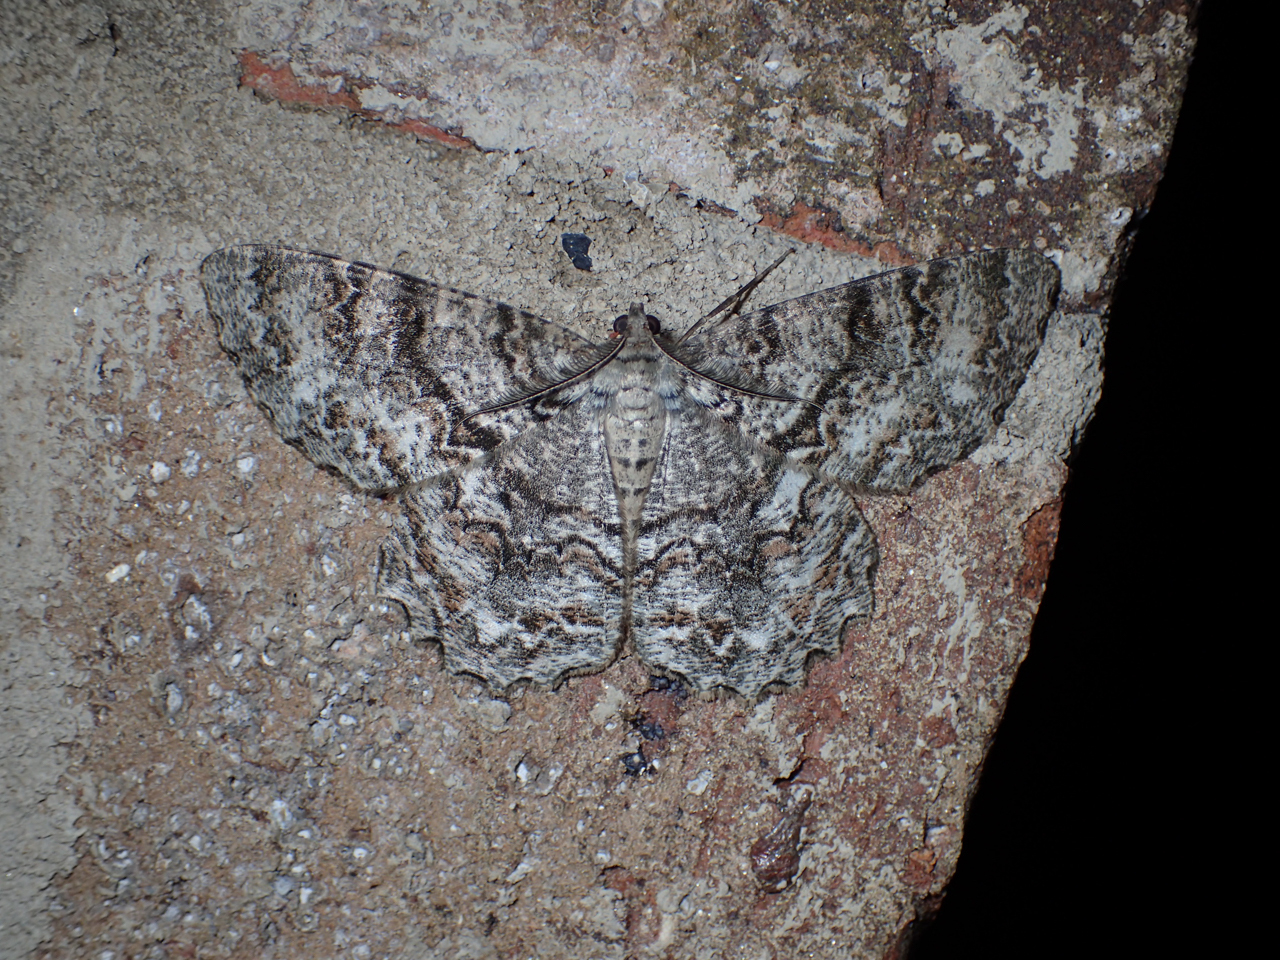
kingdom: Animalia
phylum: Arthropoda
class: Insecta
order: Lepidoptera
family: Geometridae
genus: Epimecis
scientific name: Epimecis hortaria
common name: Tulip-tree beauty
